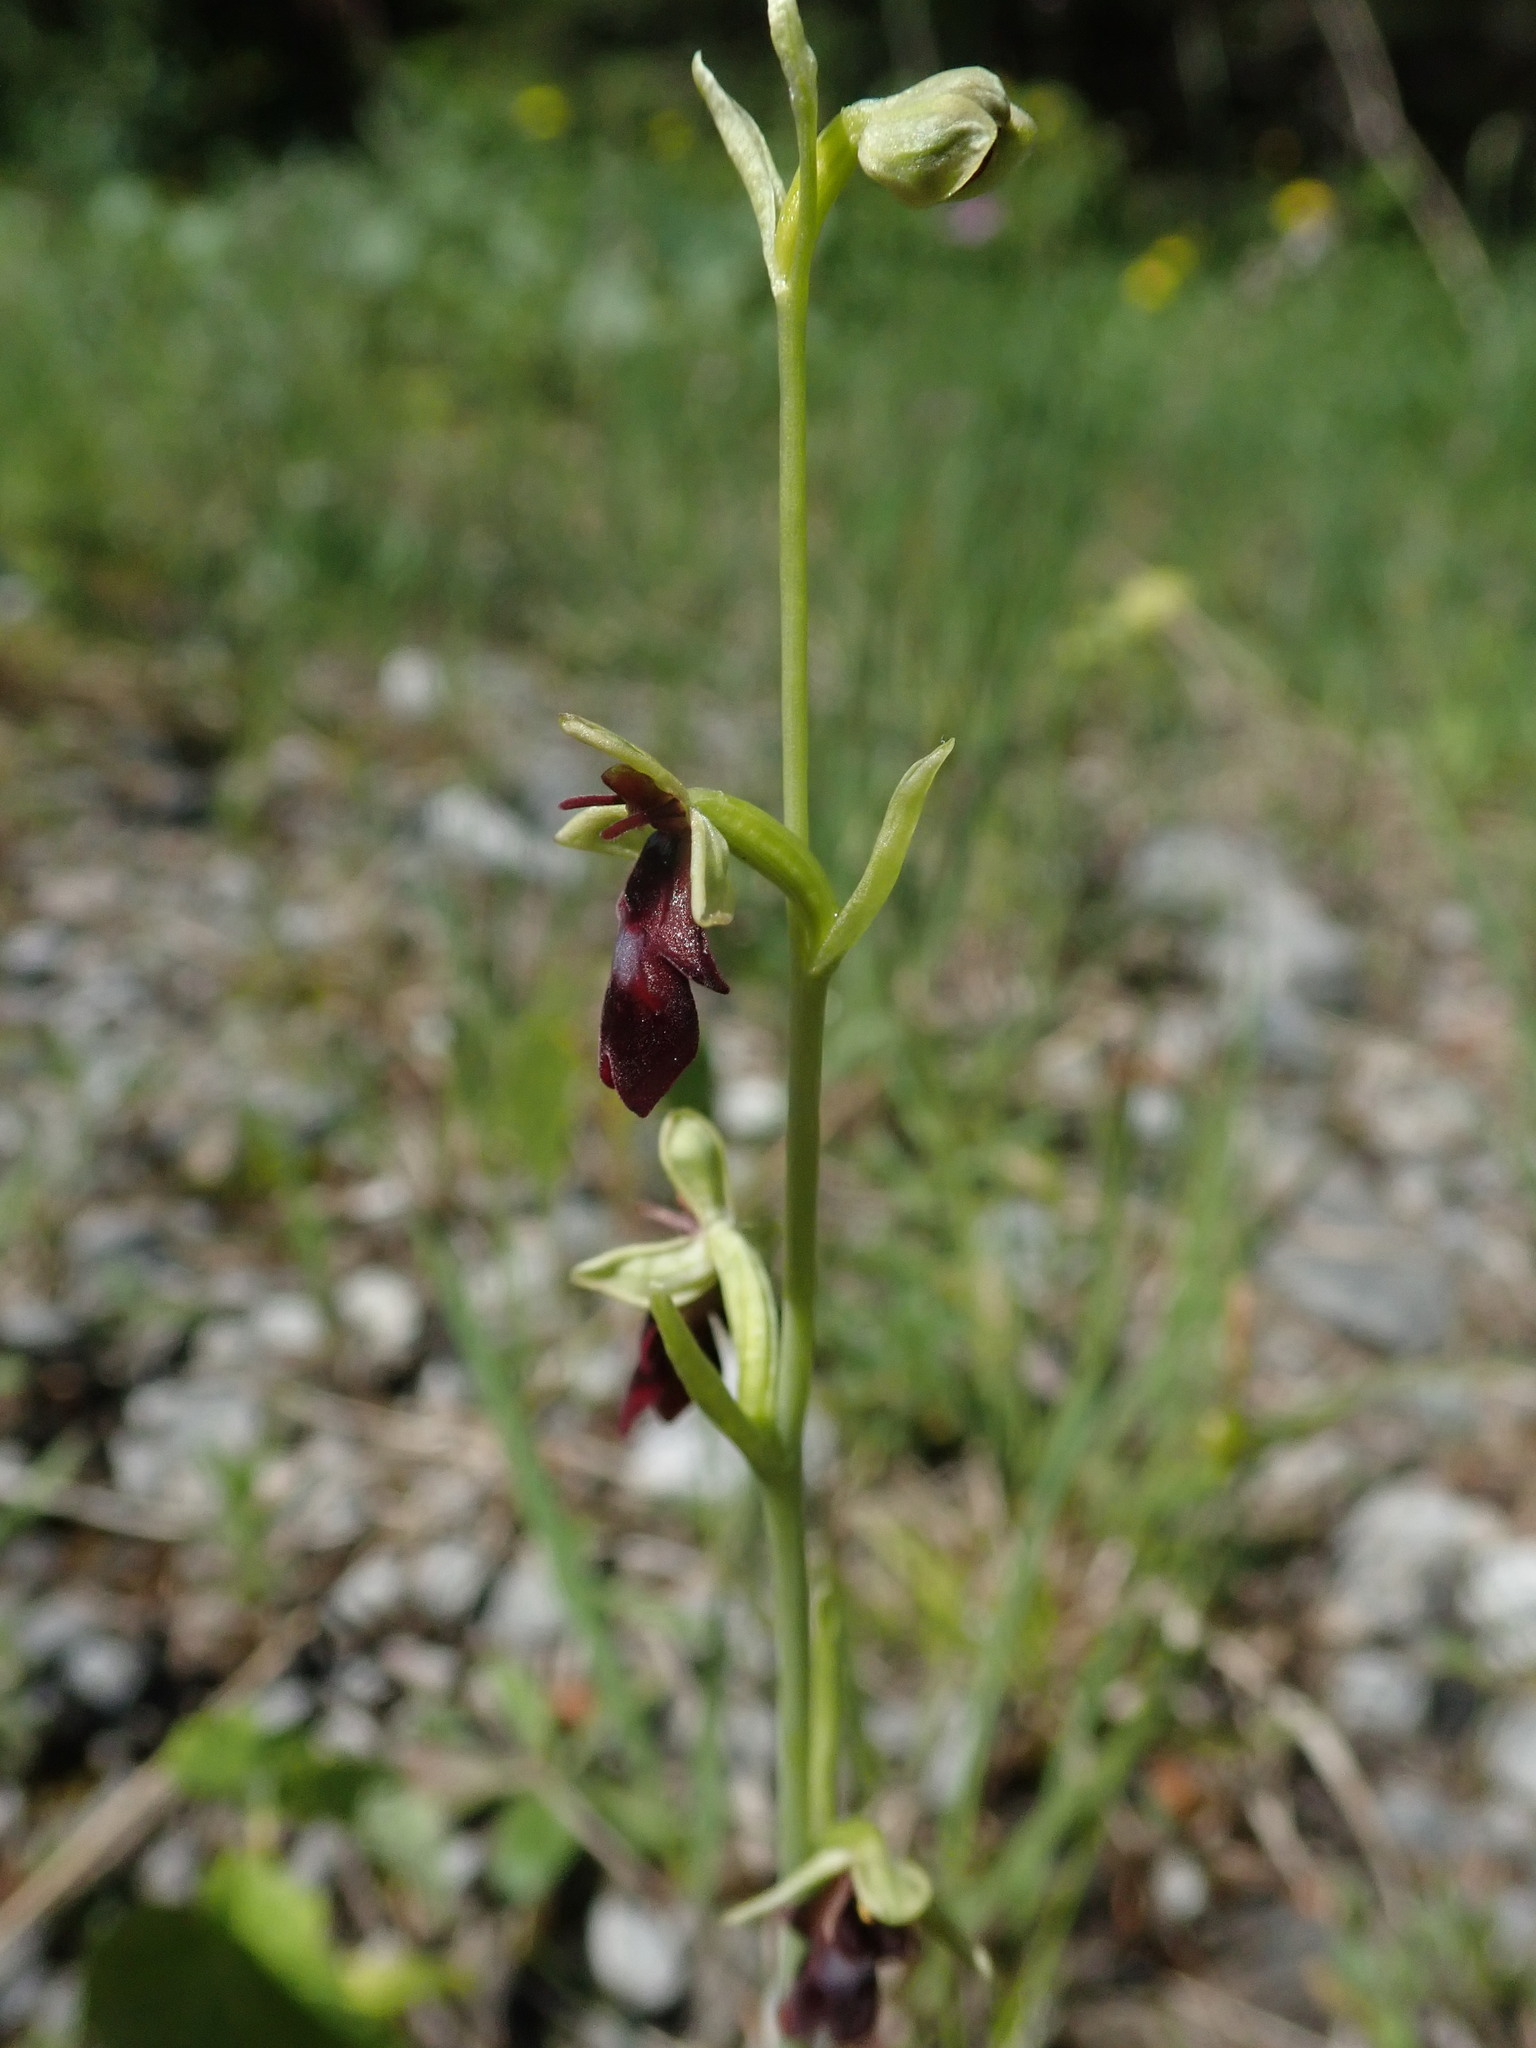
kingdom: Plantae
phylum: Tracheophyta
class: Liliopsida
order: Asparagales
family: Orchidaceae
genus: Ophrys
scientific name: Ophrys insectifera
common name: Fly orchid
